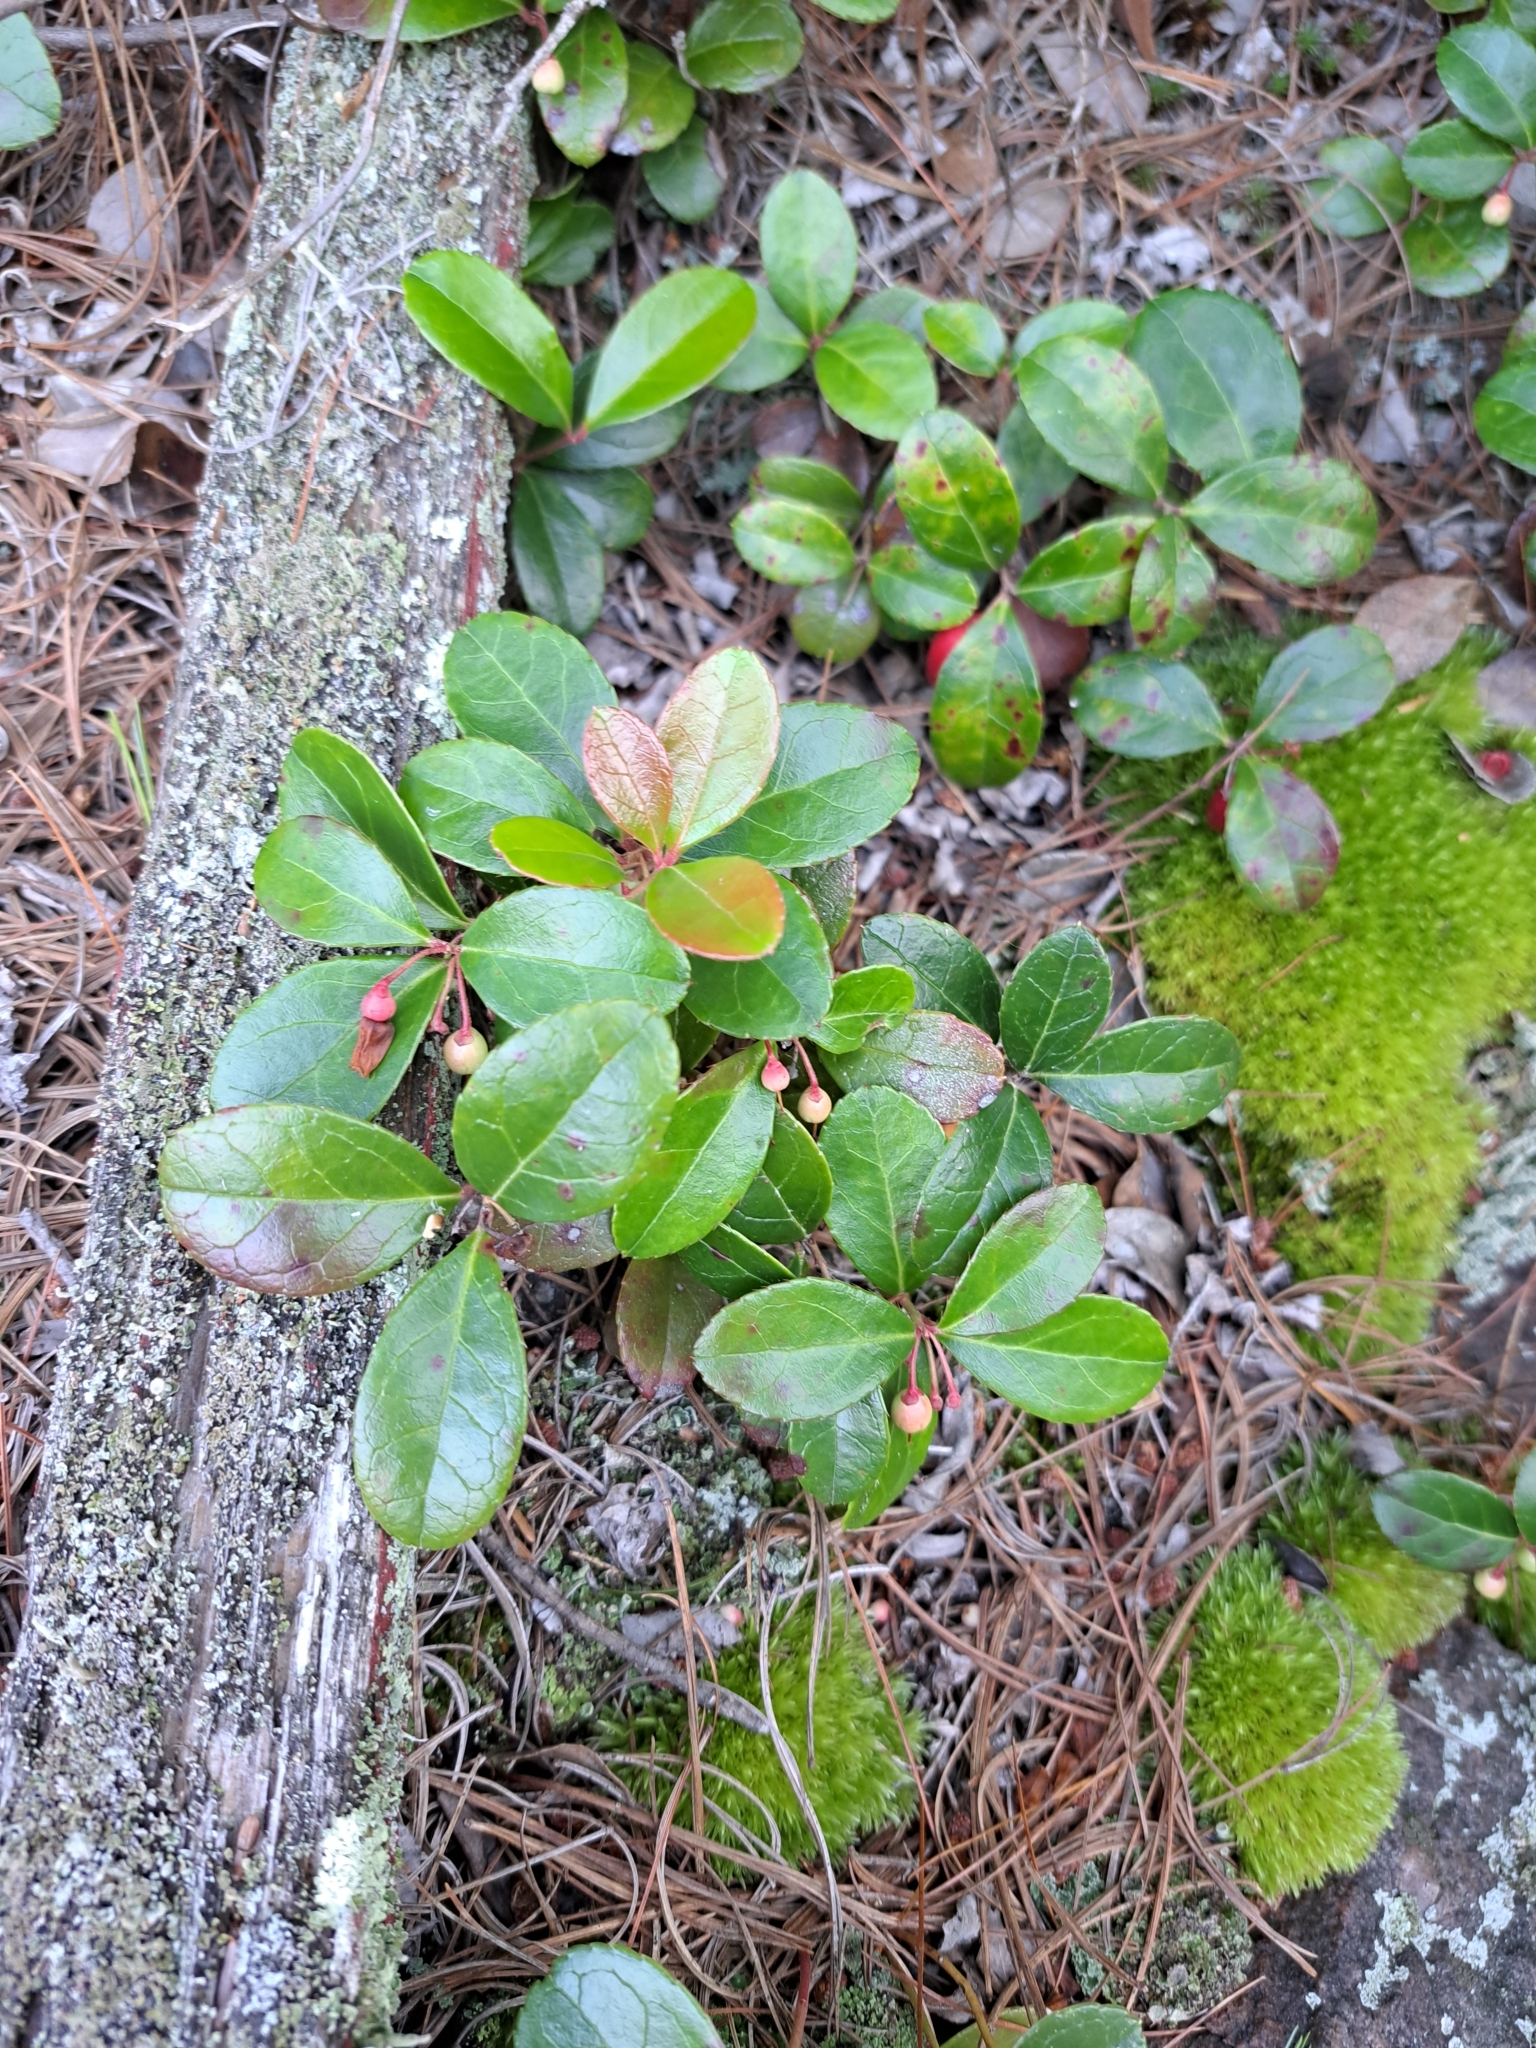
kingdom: Plantae
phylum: Tracheophyta
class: Magnoliopsida
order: Ericales
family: Ericaceae
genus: Gaultheria
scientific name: Gaultheria procumbens
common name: Checkerberry
